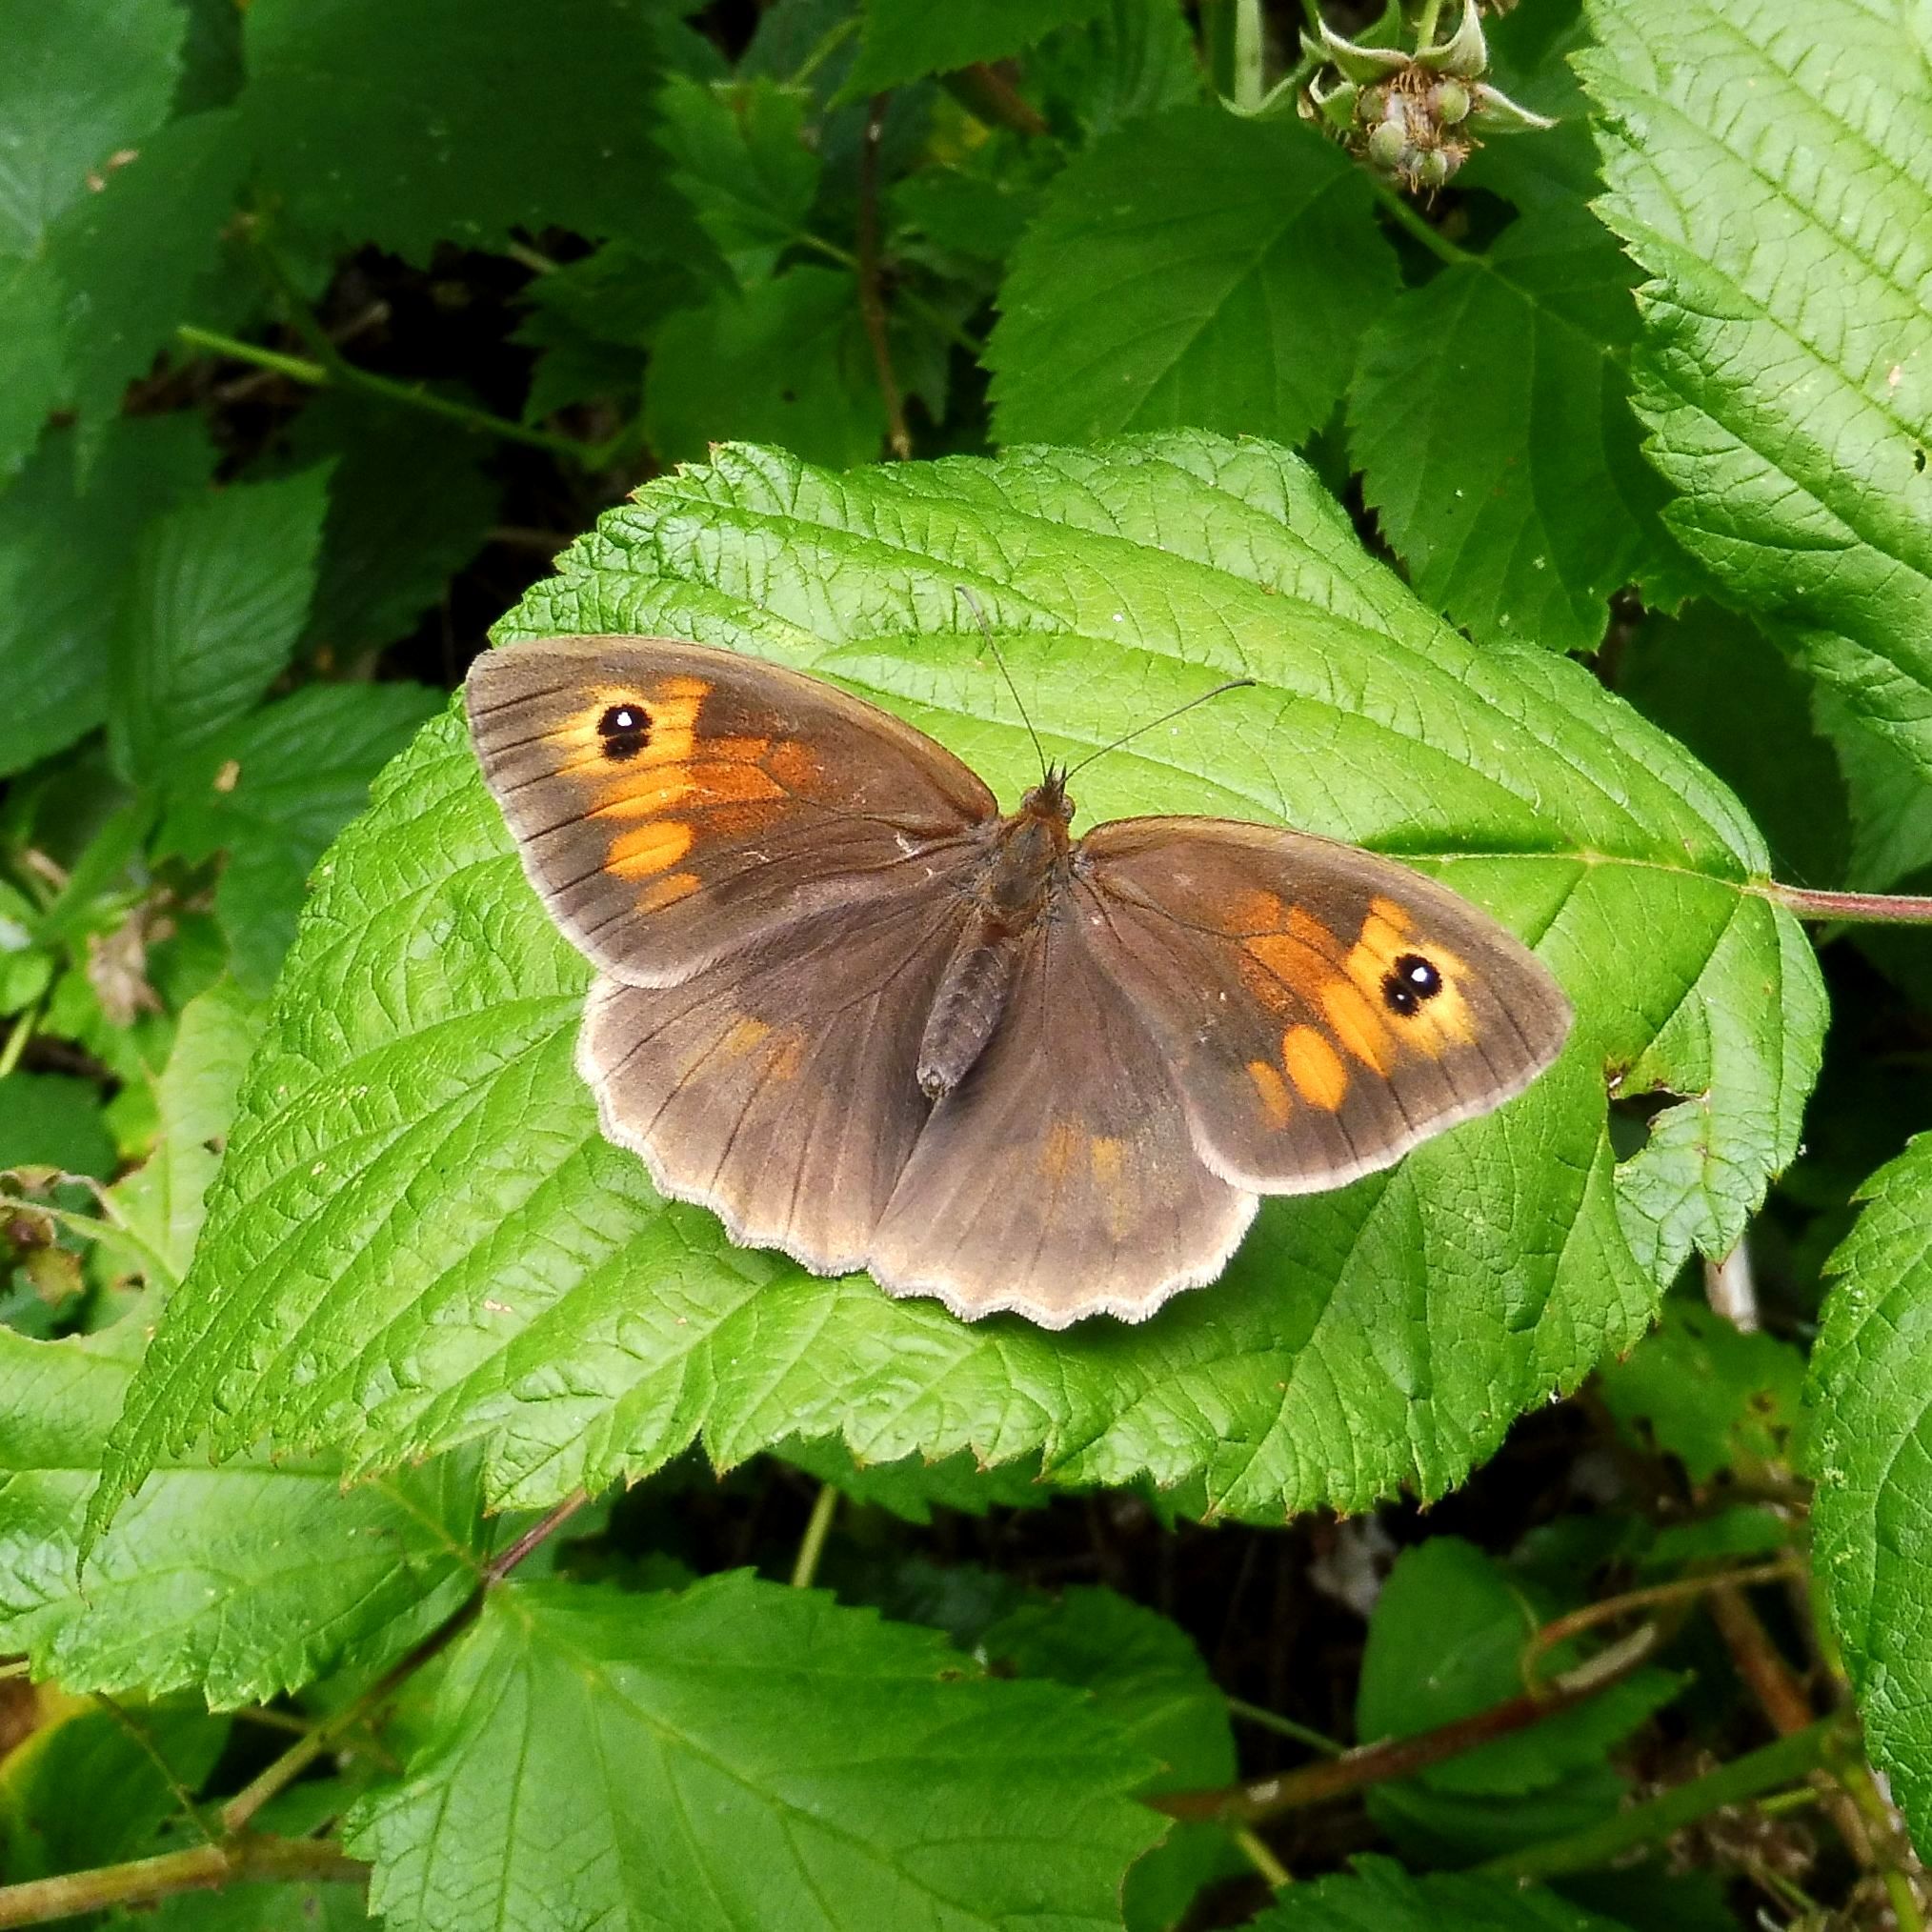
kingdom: Animalia
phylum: Arthropoda
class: Insecta
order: Lepidoptera
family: Nymphalidae
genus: Maniola
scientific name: Maniola jurtina
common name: Meadow brown
